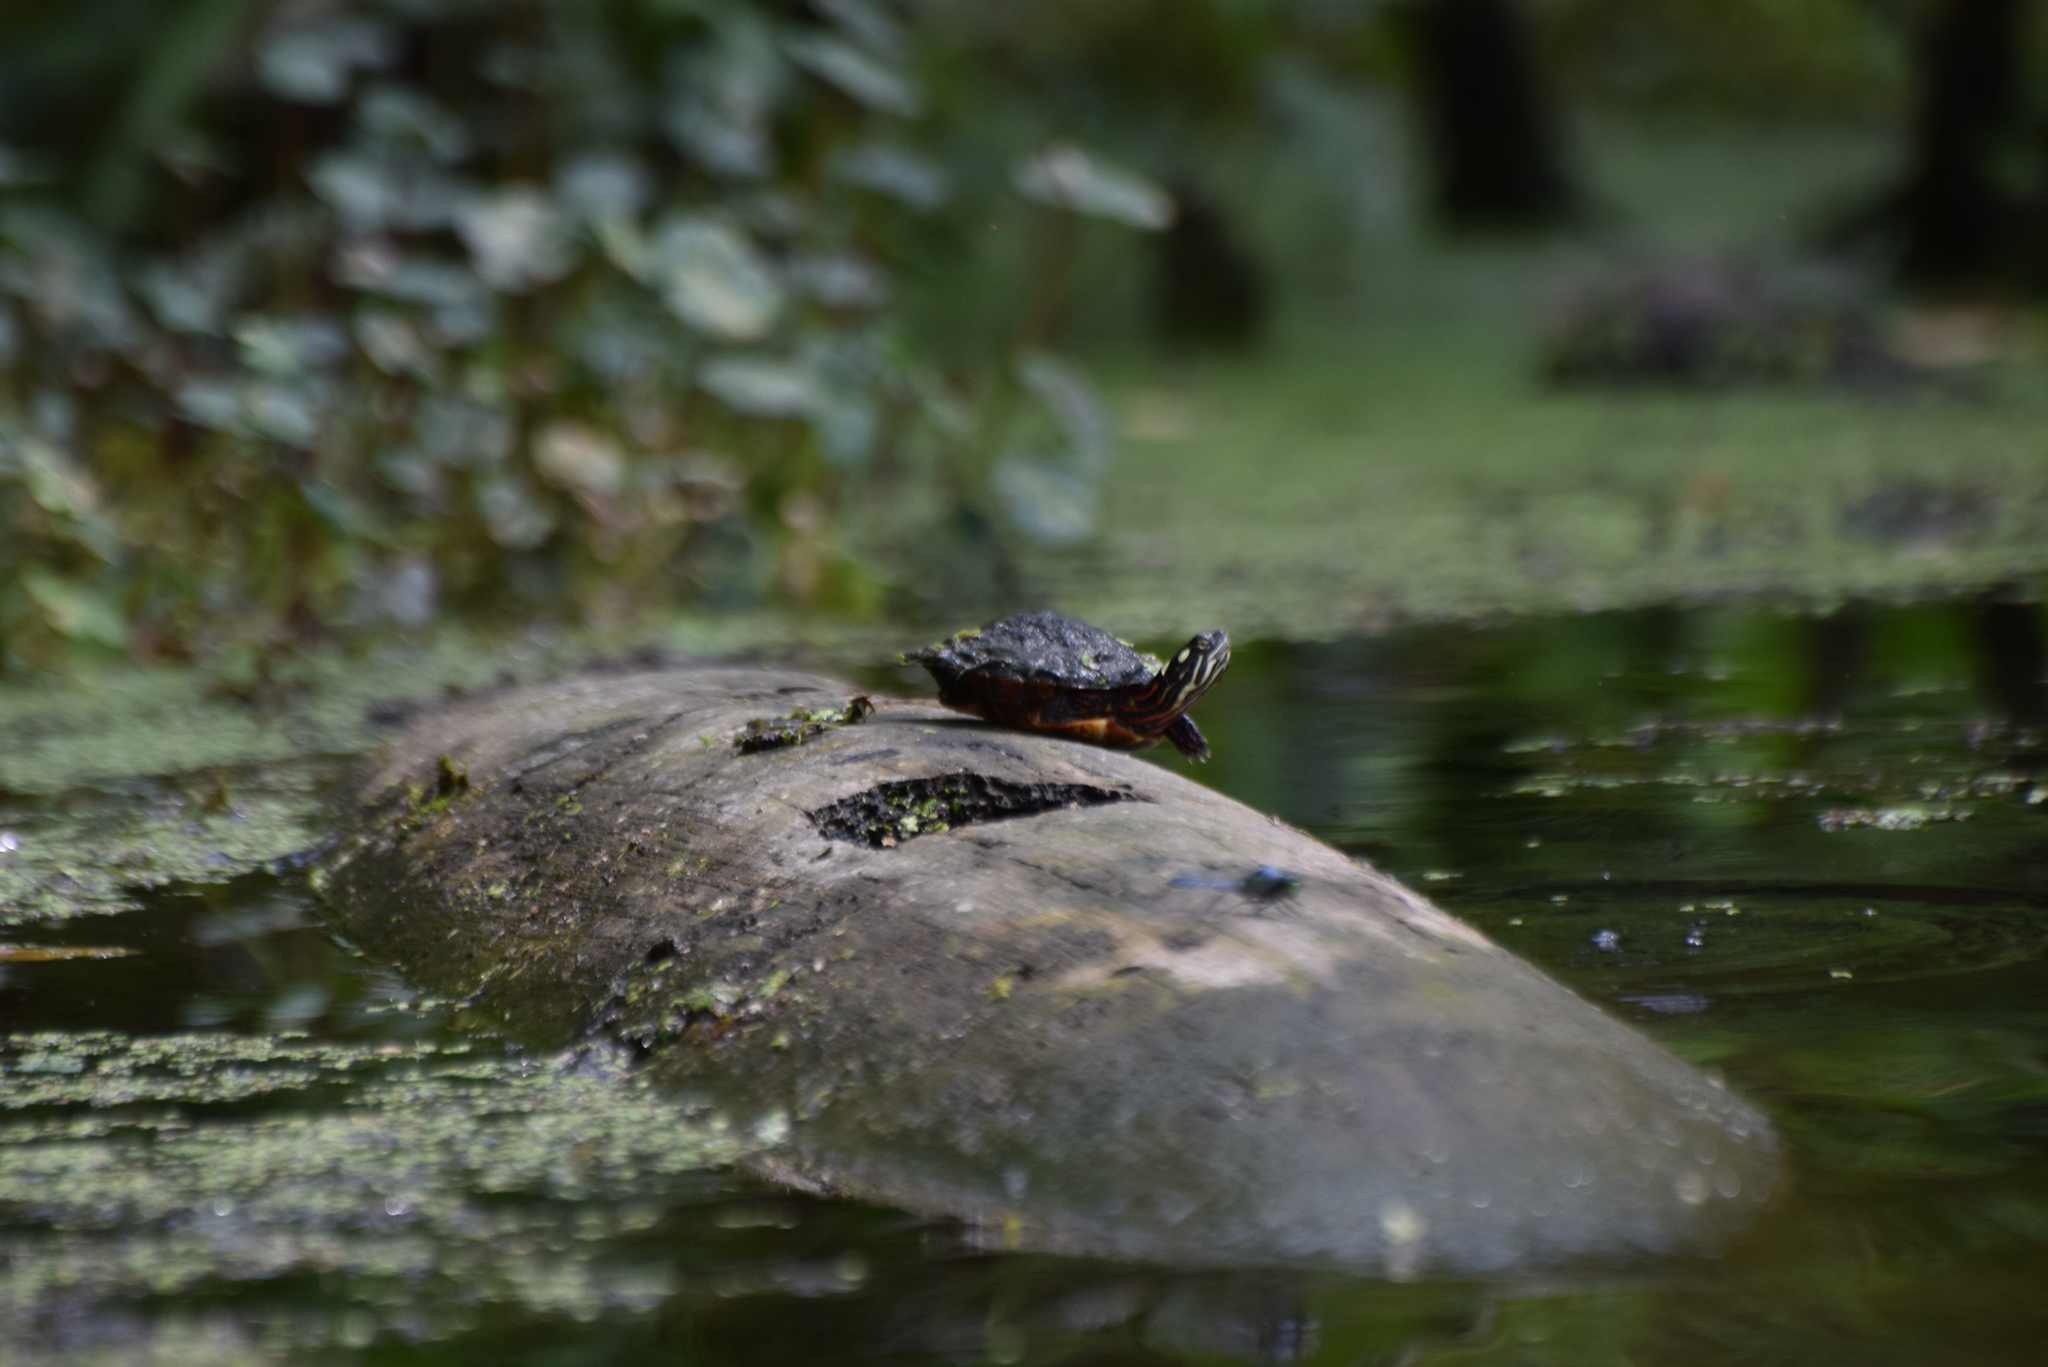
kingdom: Animalia
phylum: Chordata
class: Testudines
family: Emydidae
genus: Chrysemys
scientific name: Chrysemys picta
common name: Painted turtle
